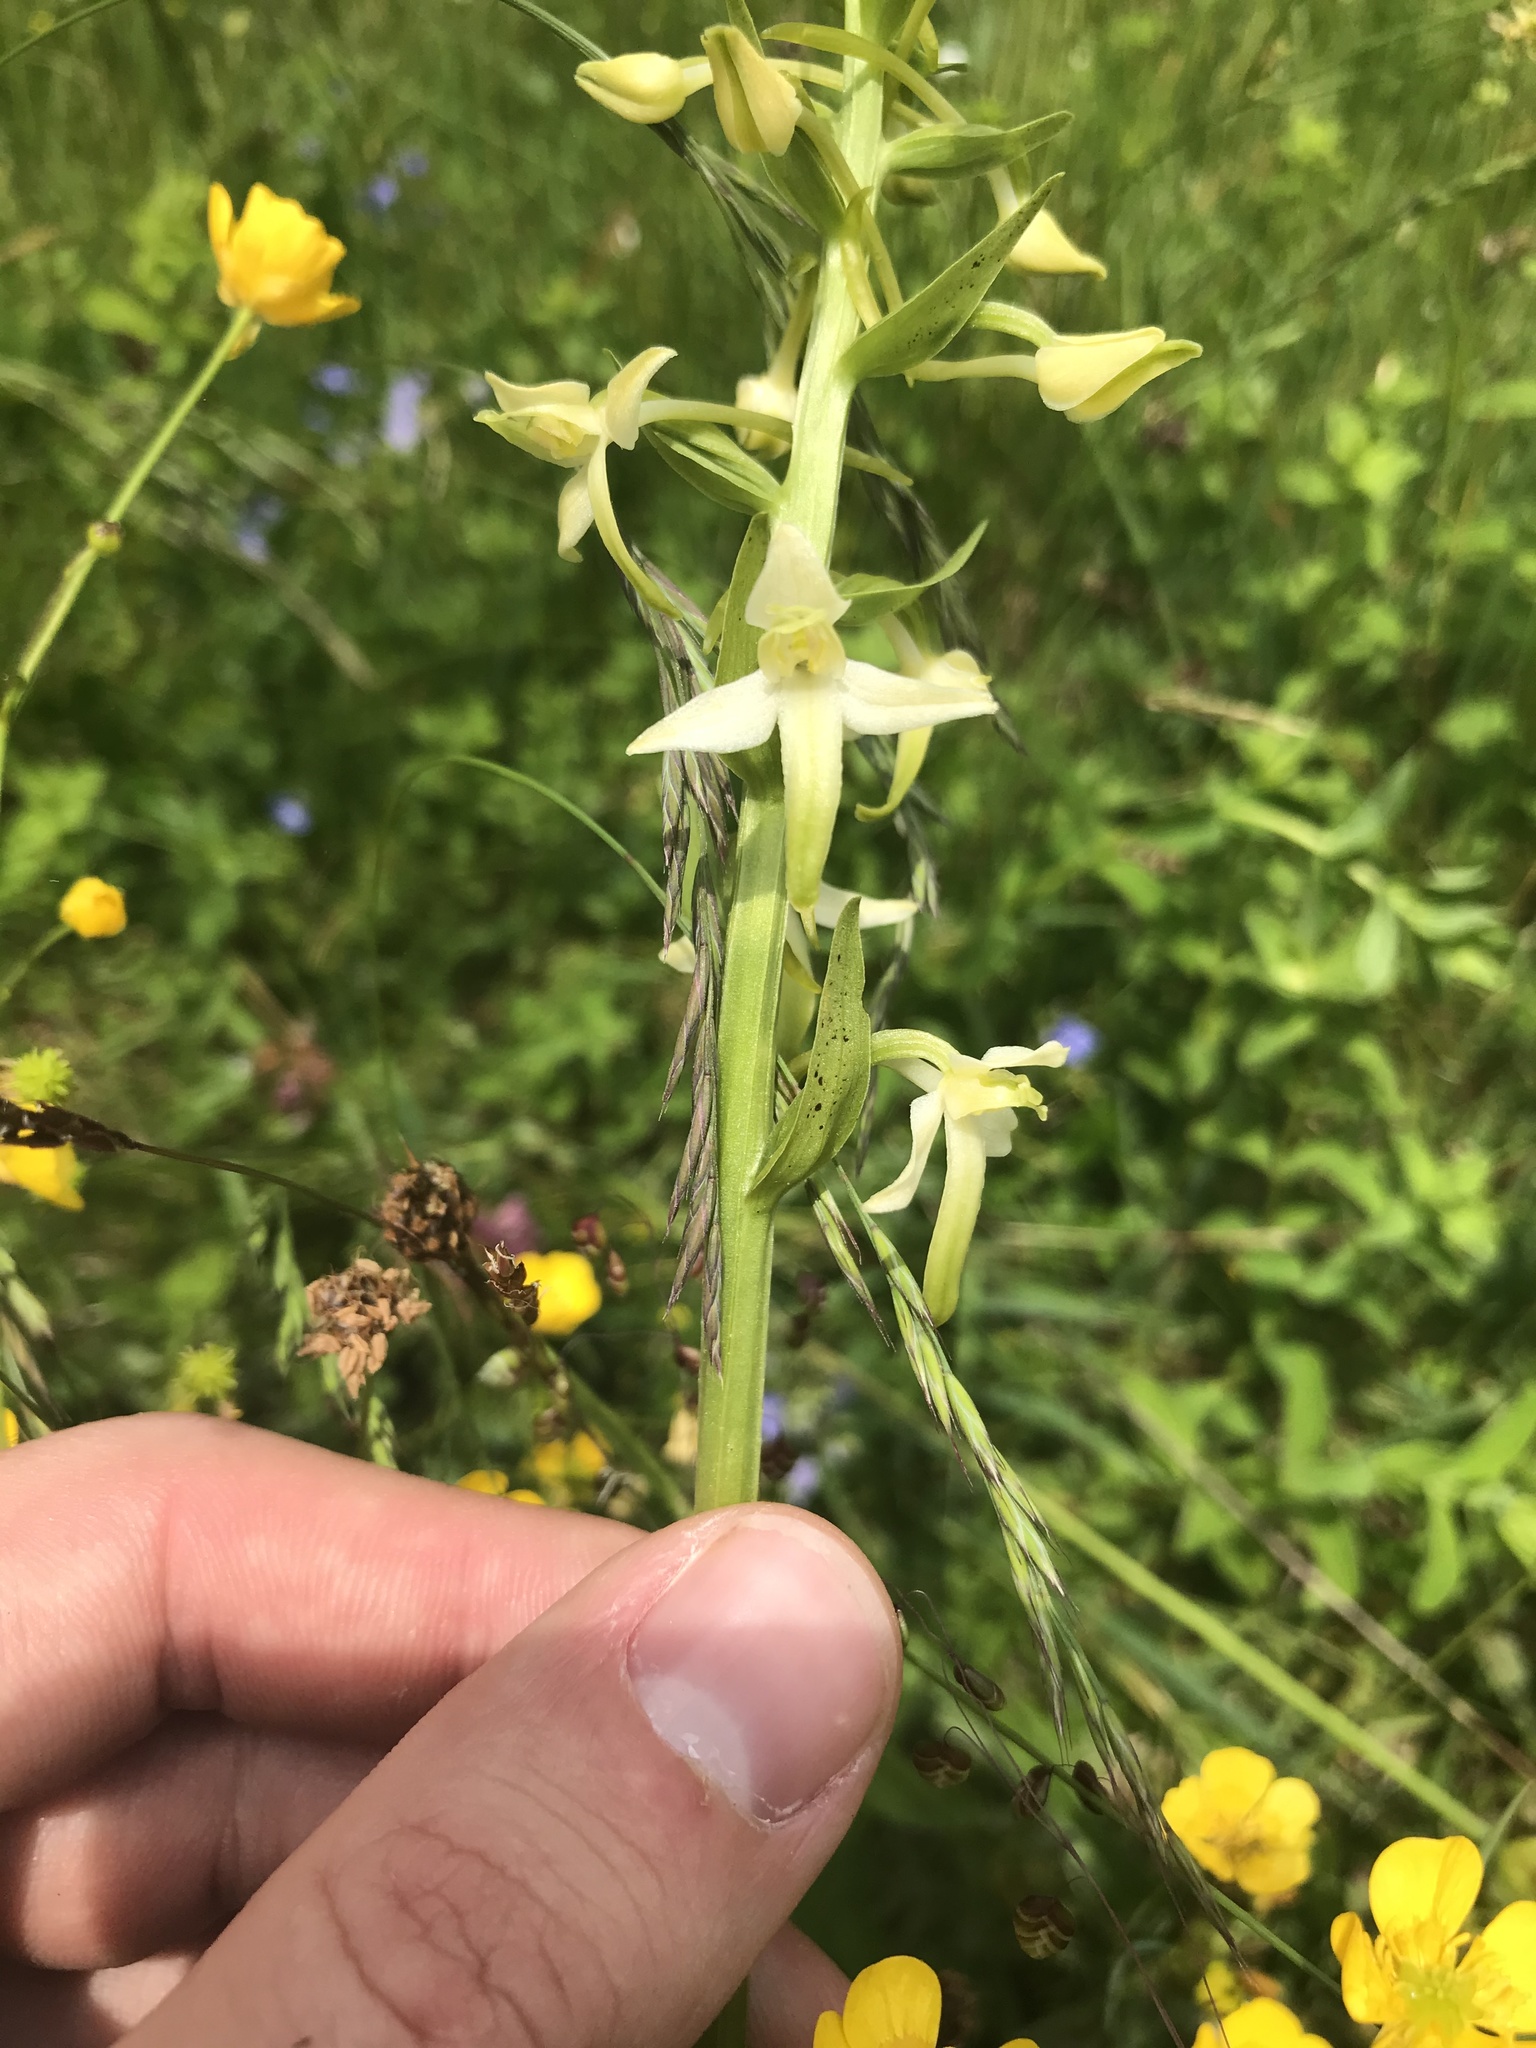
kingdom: Plantae
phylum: Tracheophyta
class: Liliopsida
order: Asparagales
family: Orchidaceae
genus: Platanthera
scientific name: Platanthera chlorantha
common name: Greater butterfly-orchid
